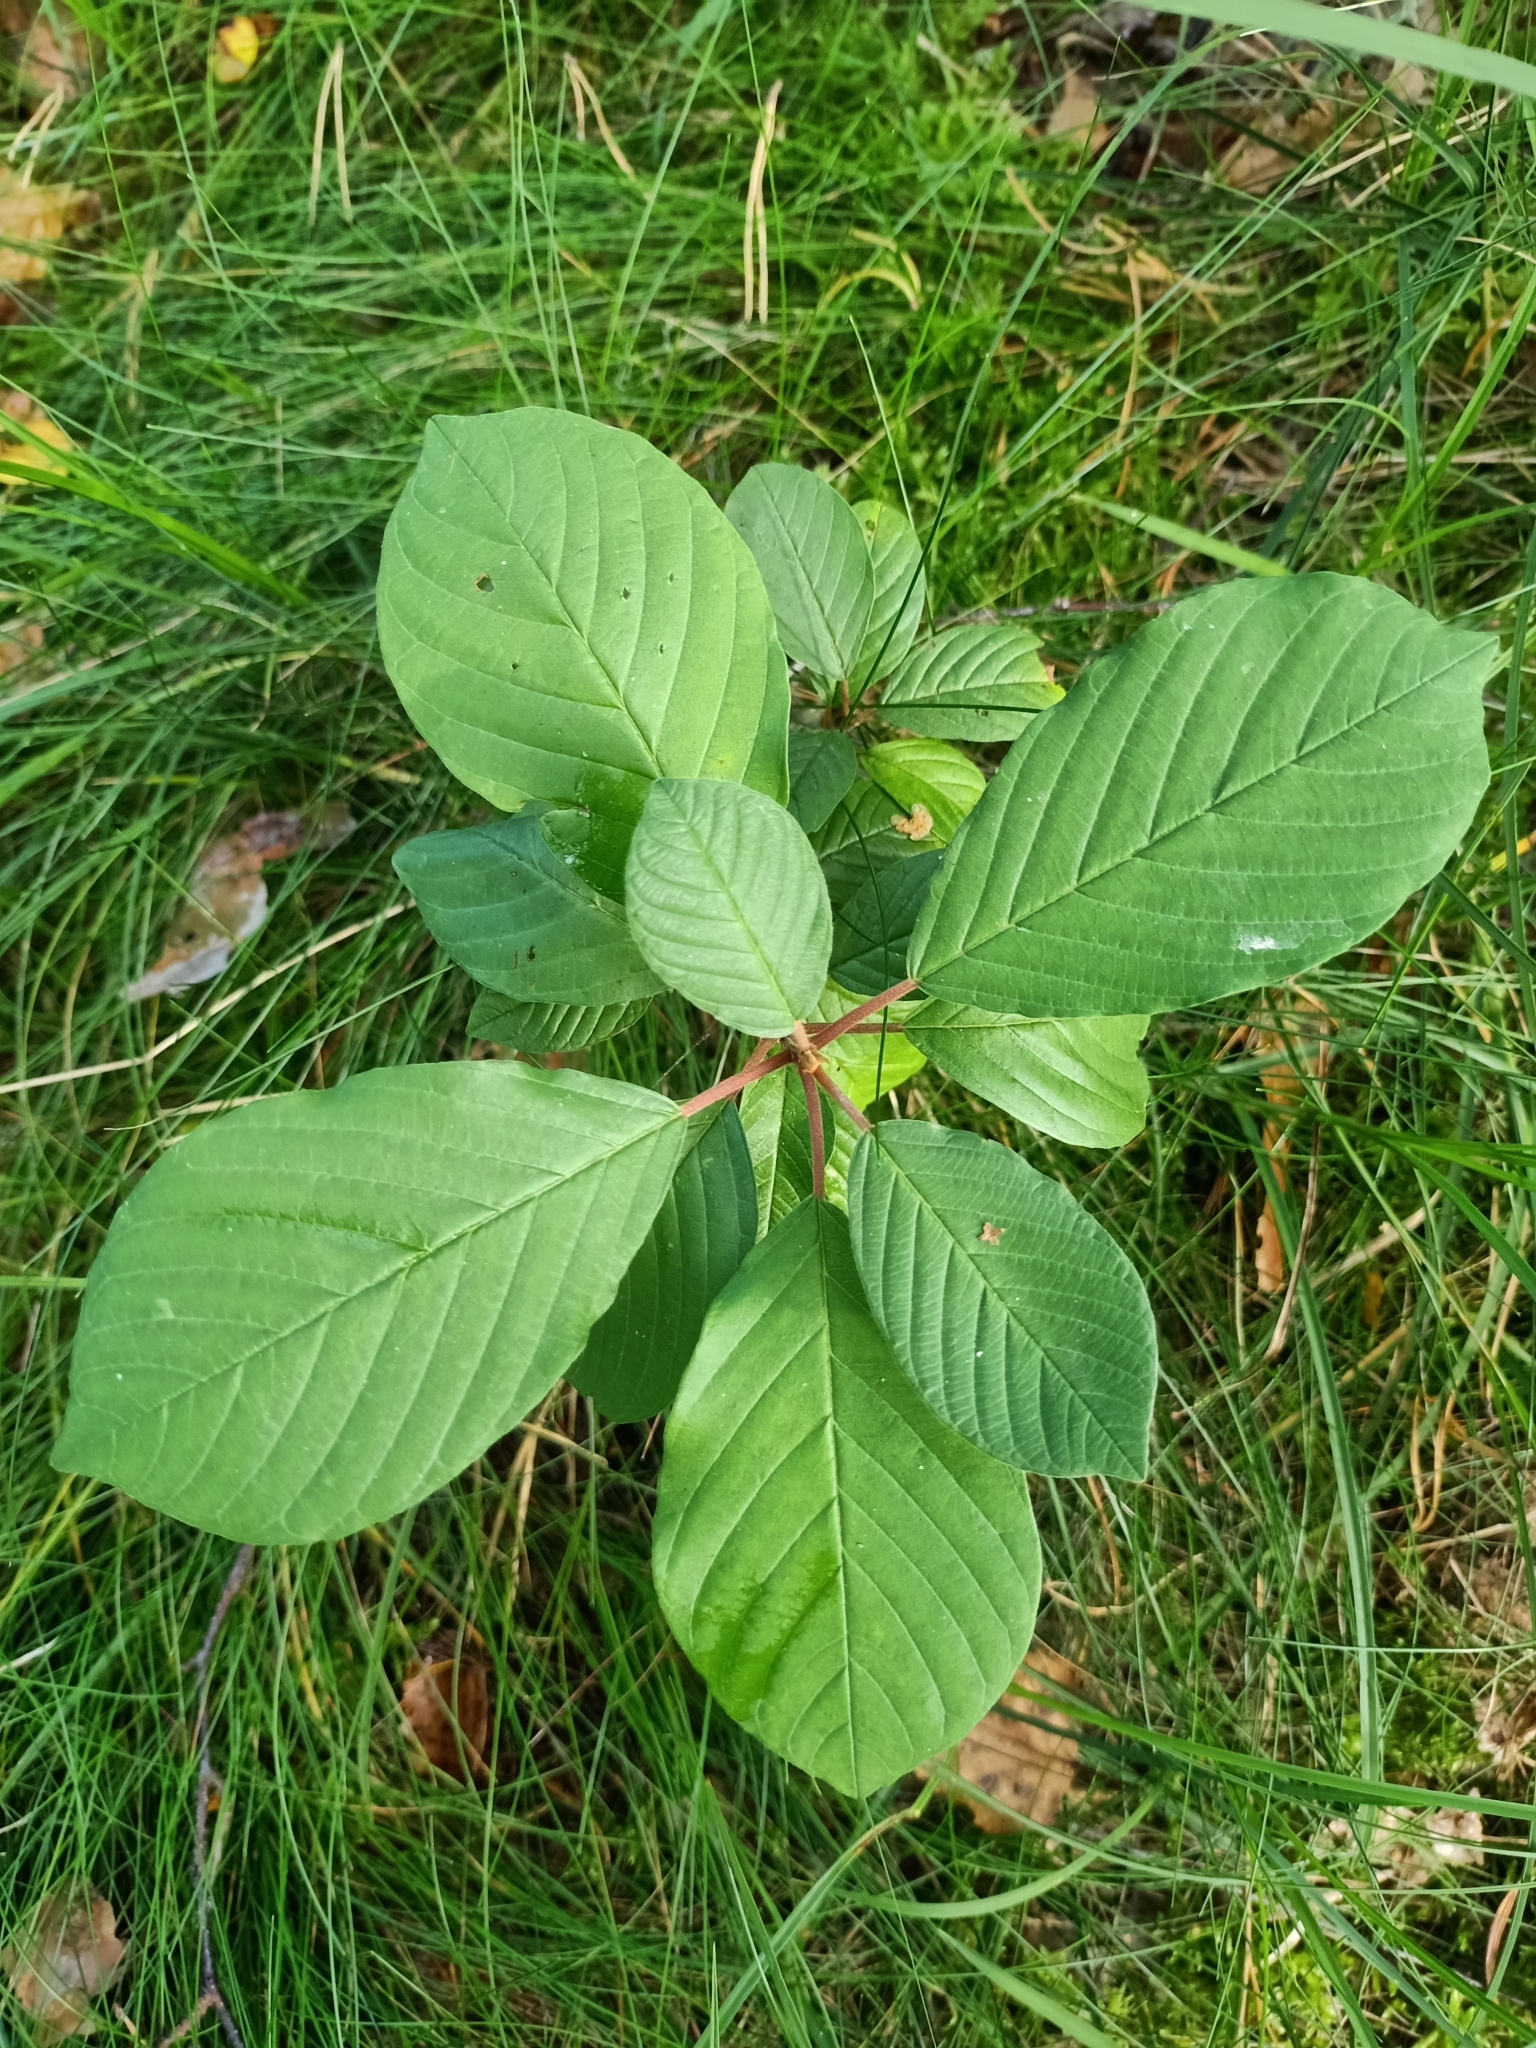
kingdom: Plantae
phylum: Tracheophyta
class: Magnoliopsida
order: Rosales
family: Rhamnaceae
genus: Frangula
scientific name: Frangula alnus
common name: Alder buckthorn
